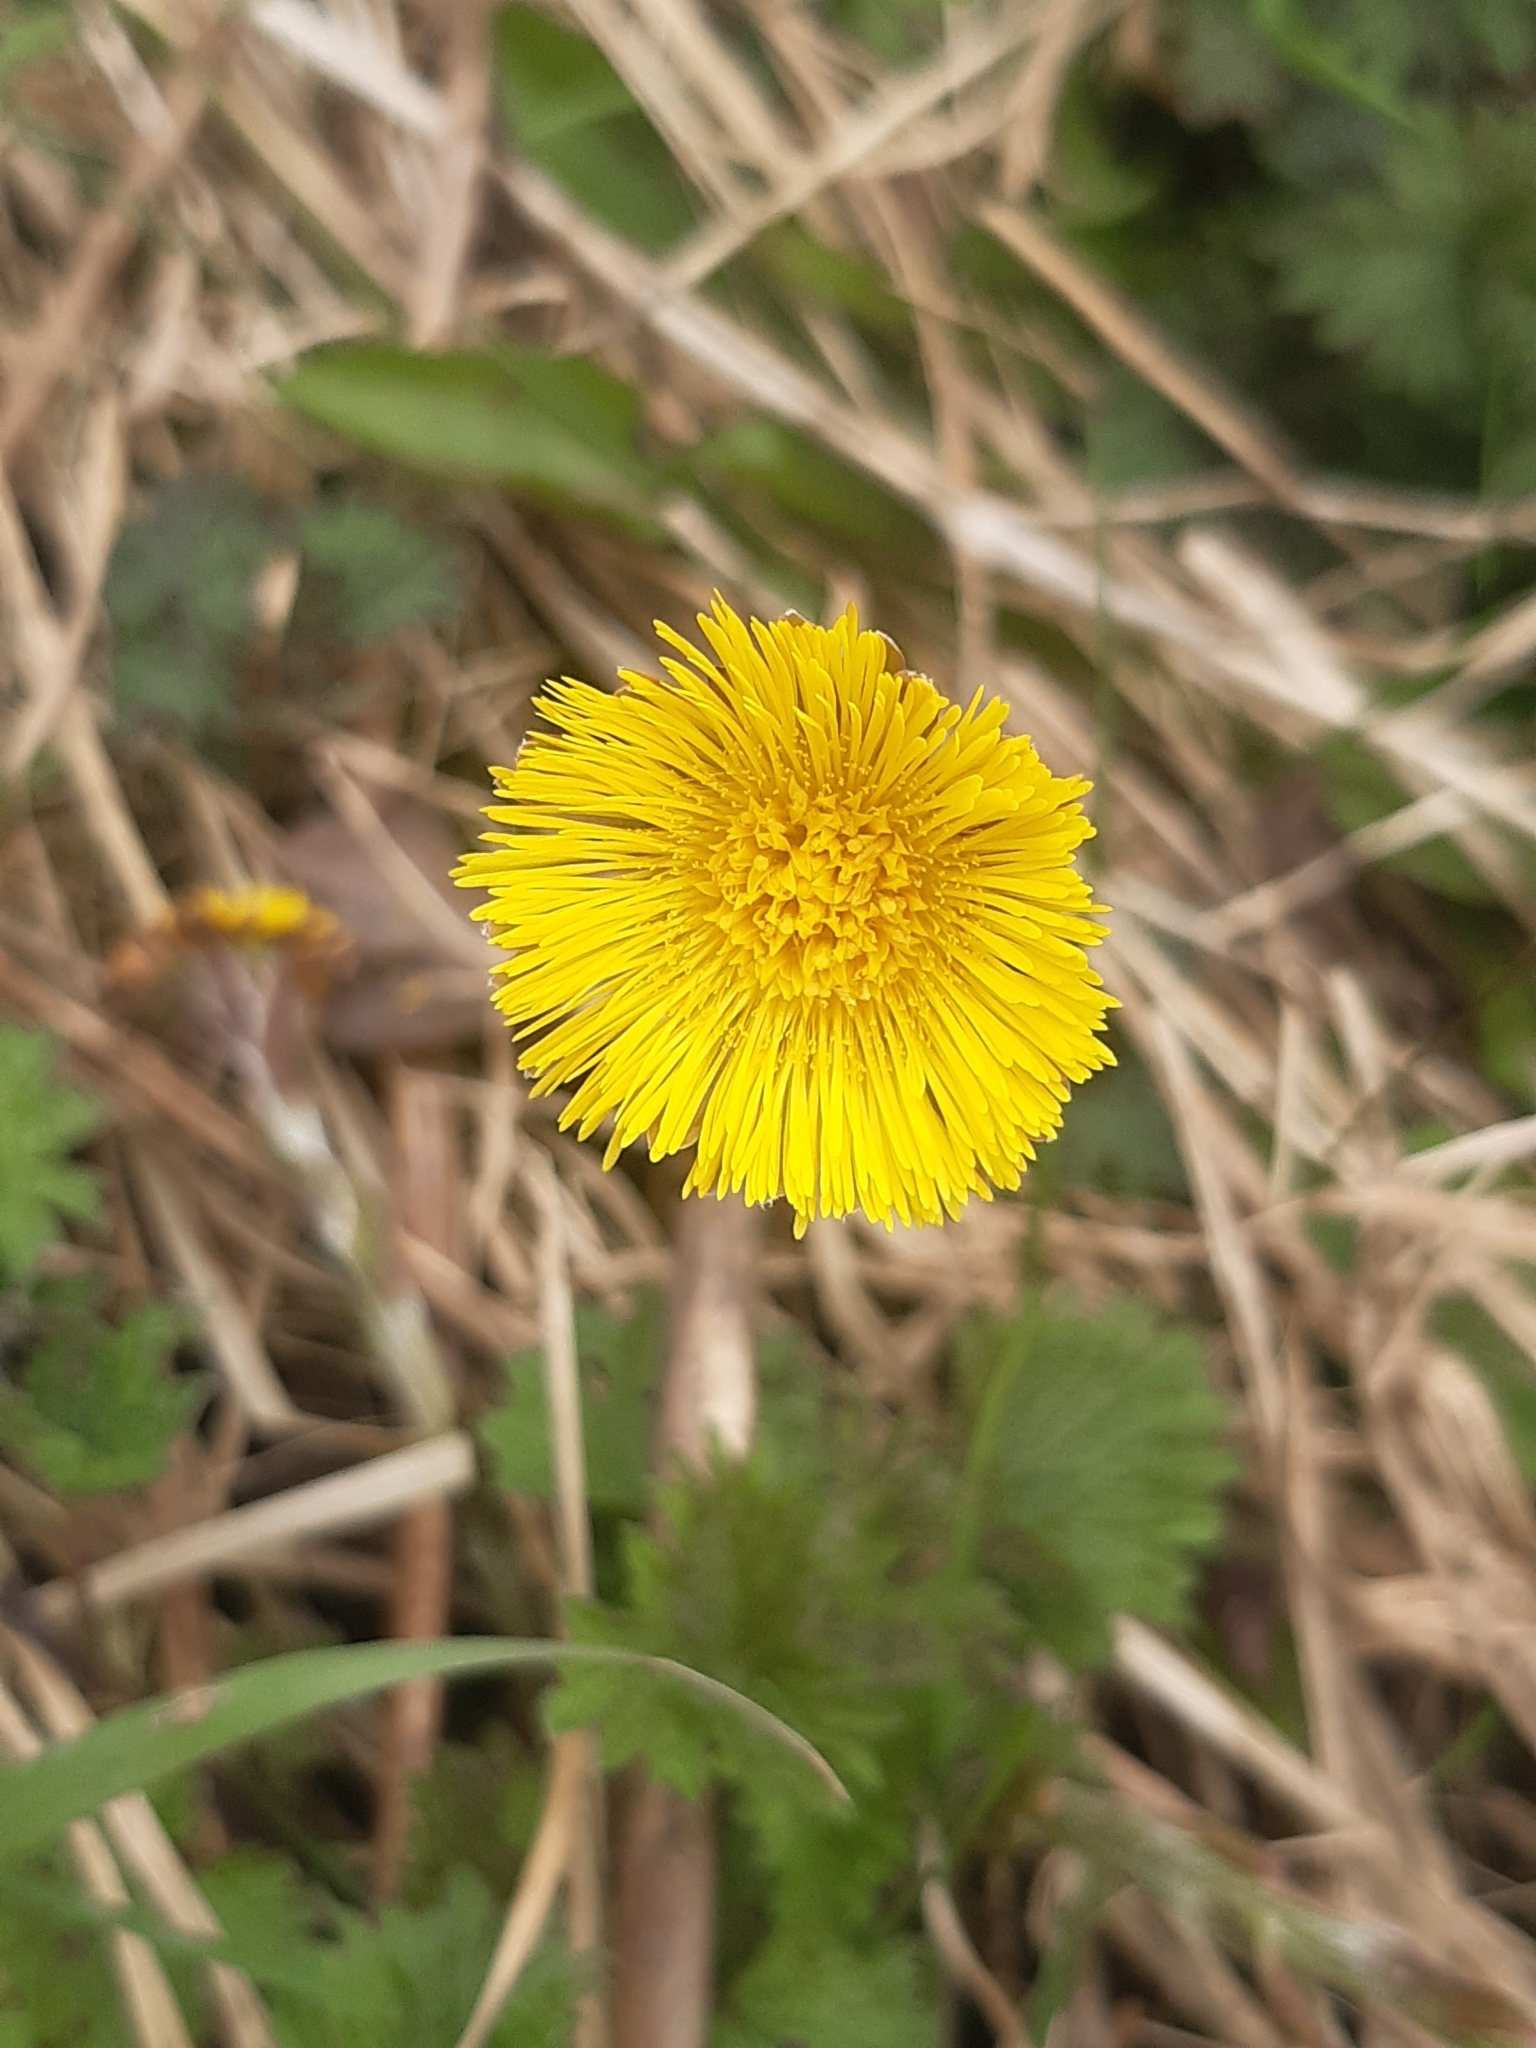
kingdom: Plantae
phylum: Tracheophyta
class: Magnoliopsida
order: Asterales
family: Asteraceae
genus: Tussilago
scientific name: Tussilago farfara
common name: Coltsfoot
